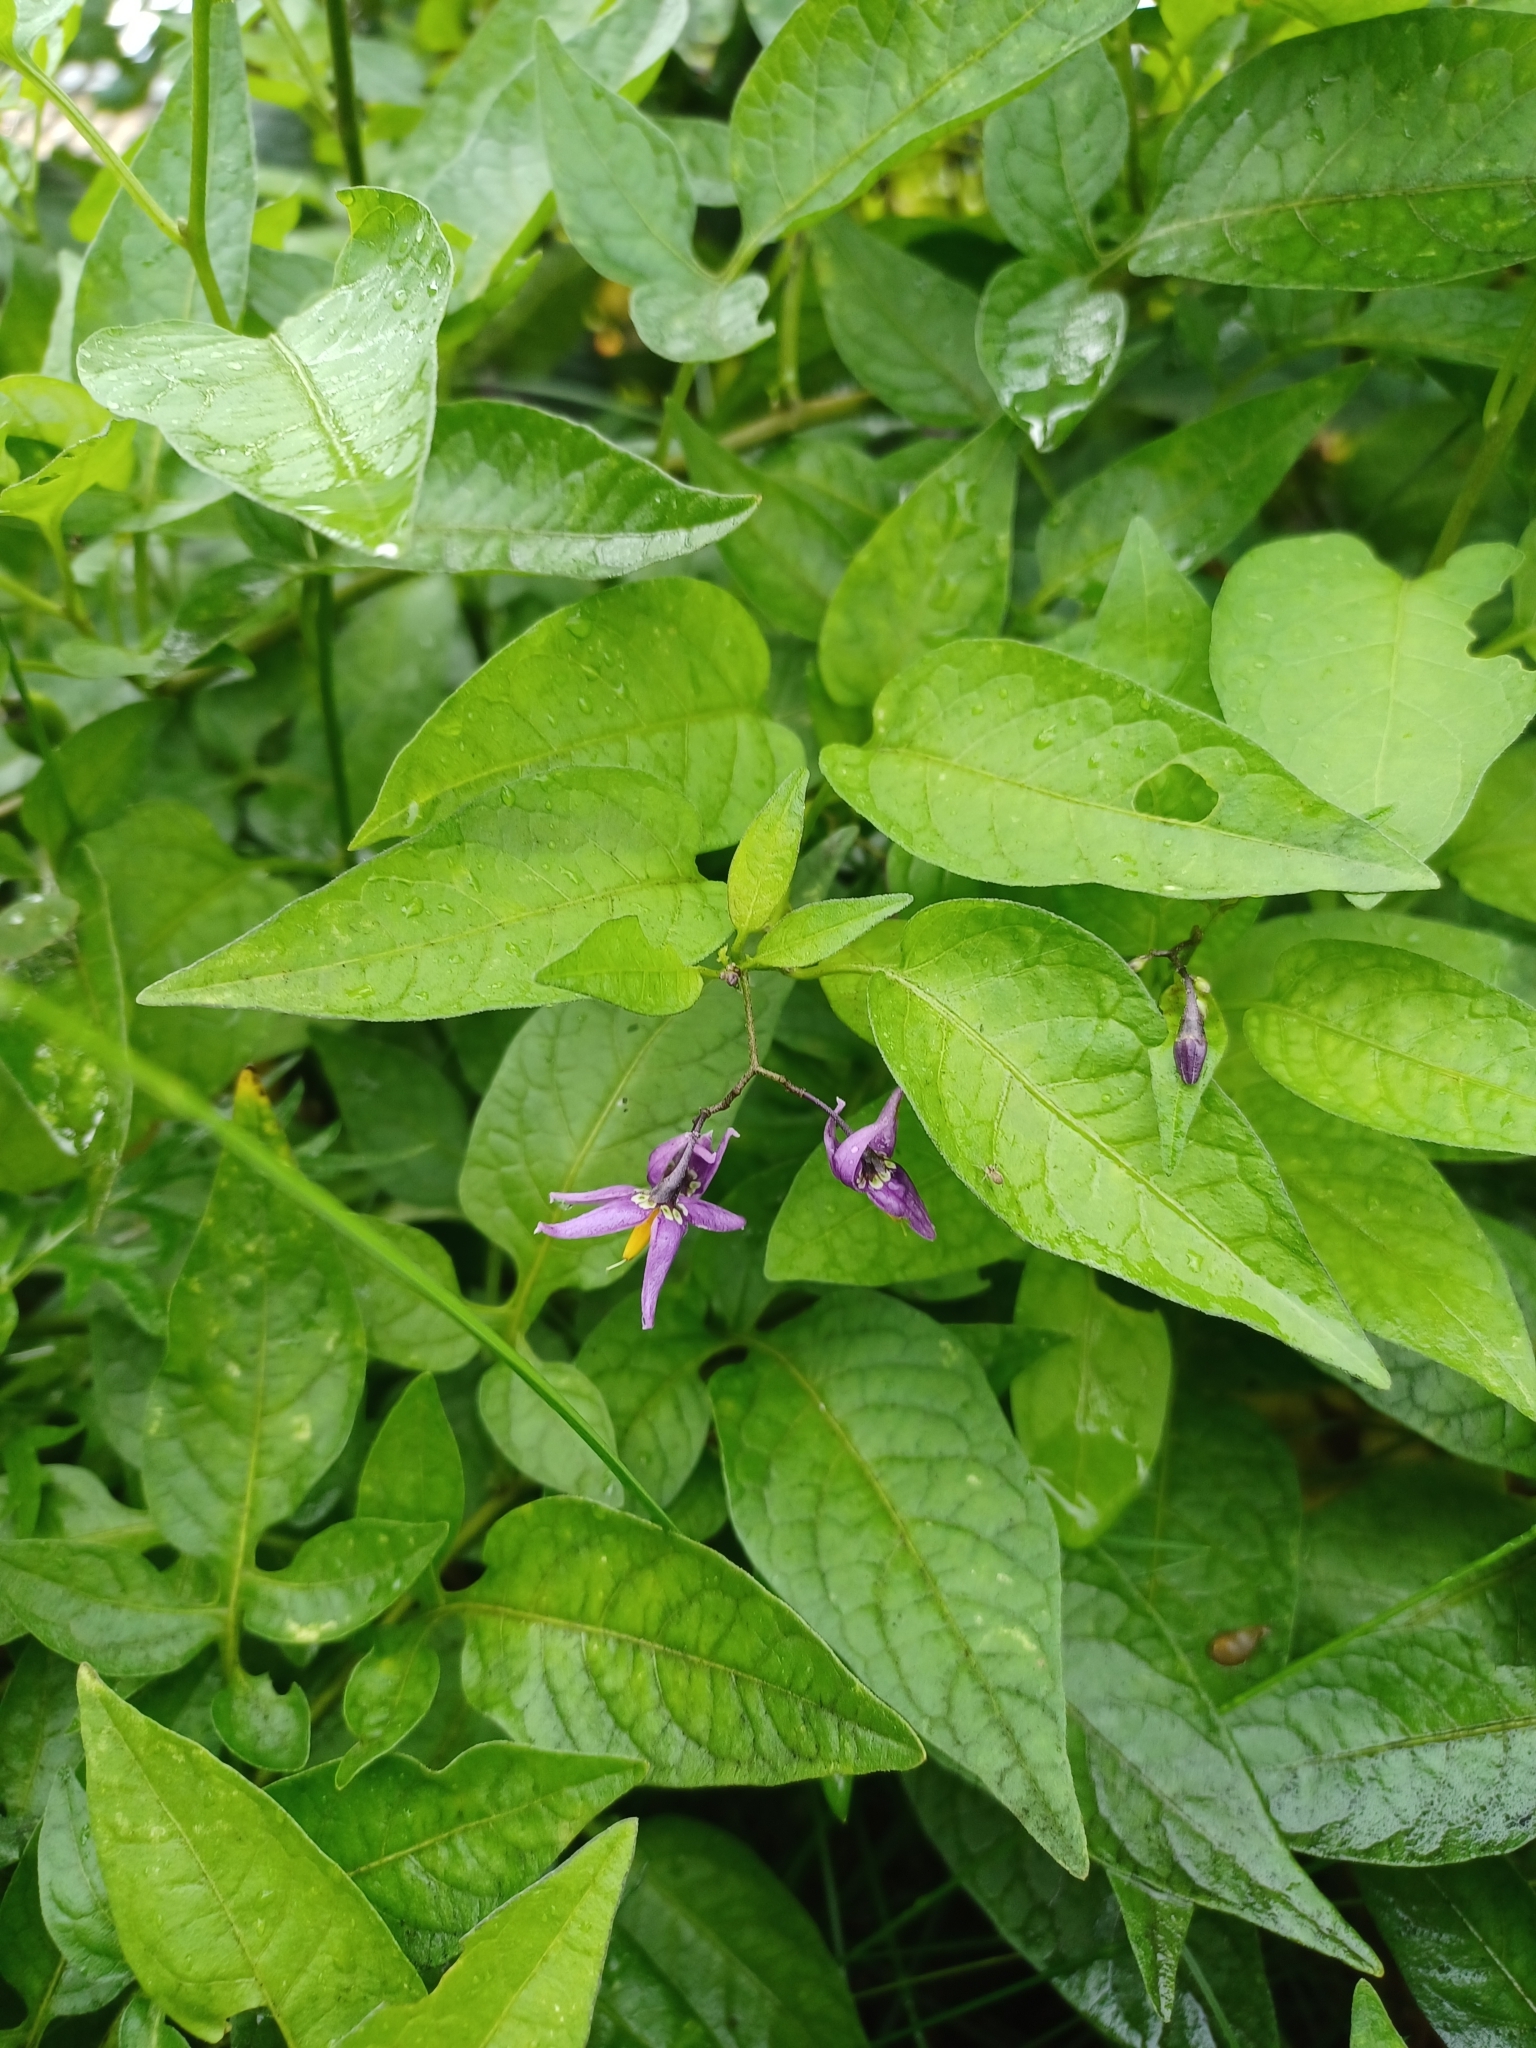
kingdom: Plantae
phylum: Tracheophyta
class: Magnoliopsida
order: Solanales
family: Solanaceae
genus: Solanum
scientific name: Solanum dulcamara
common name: Climbing nightshade
